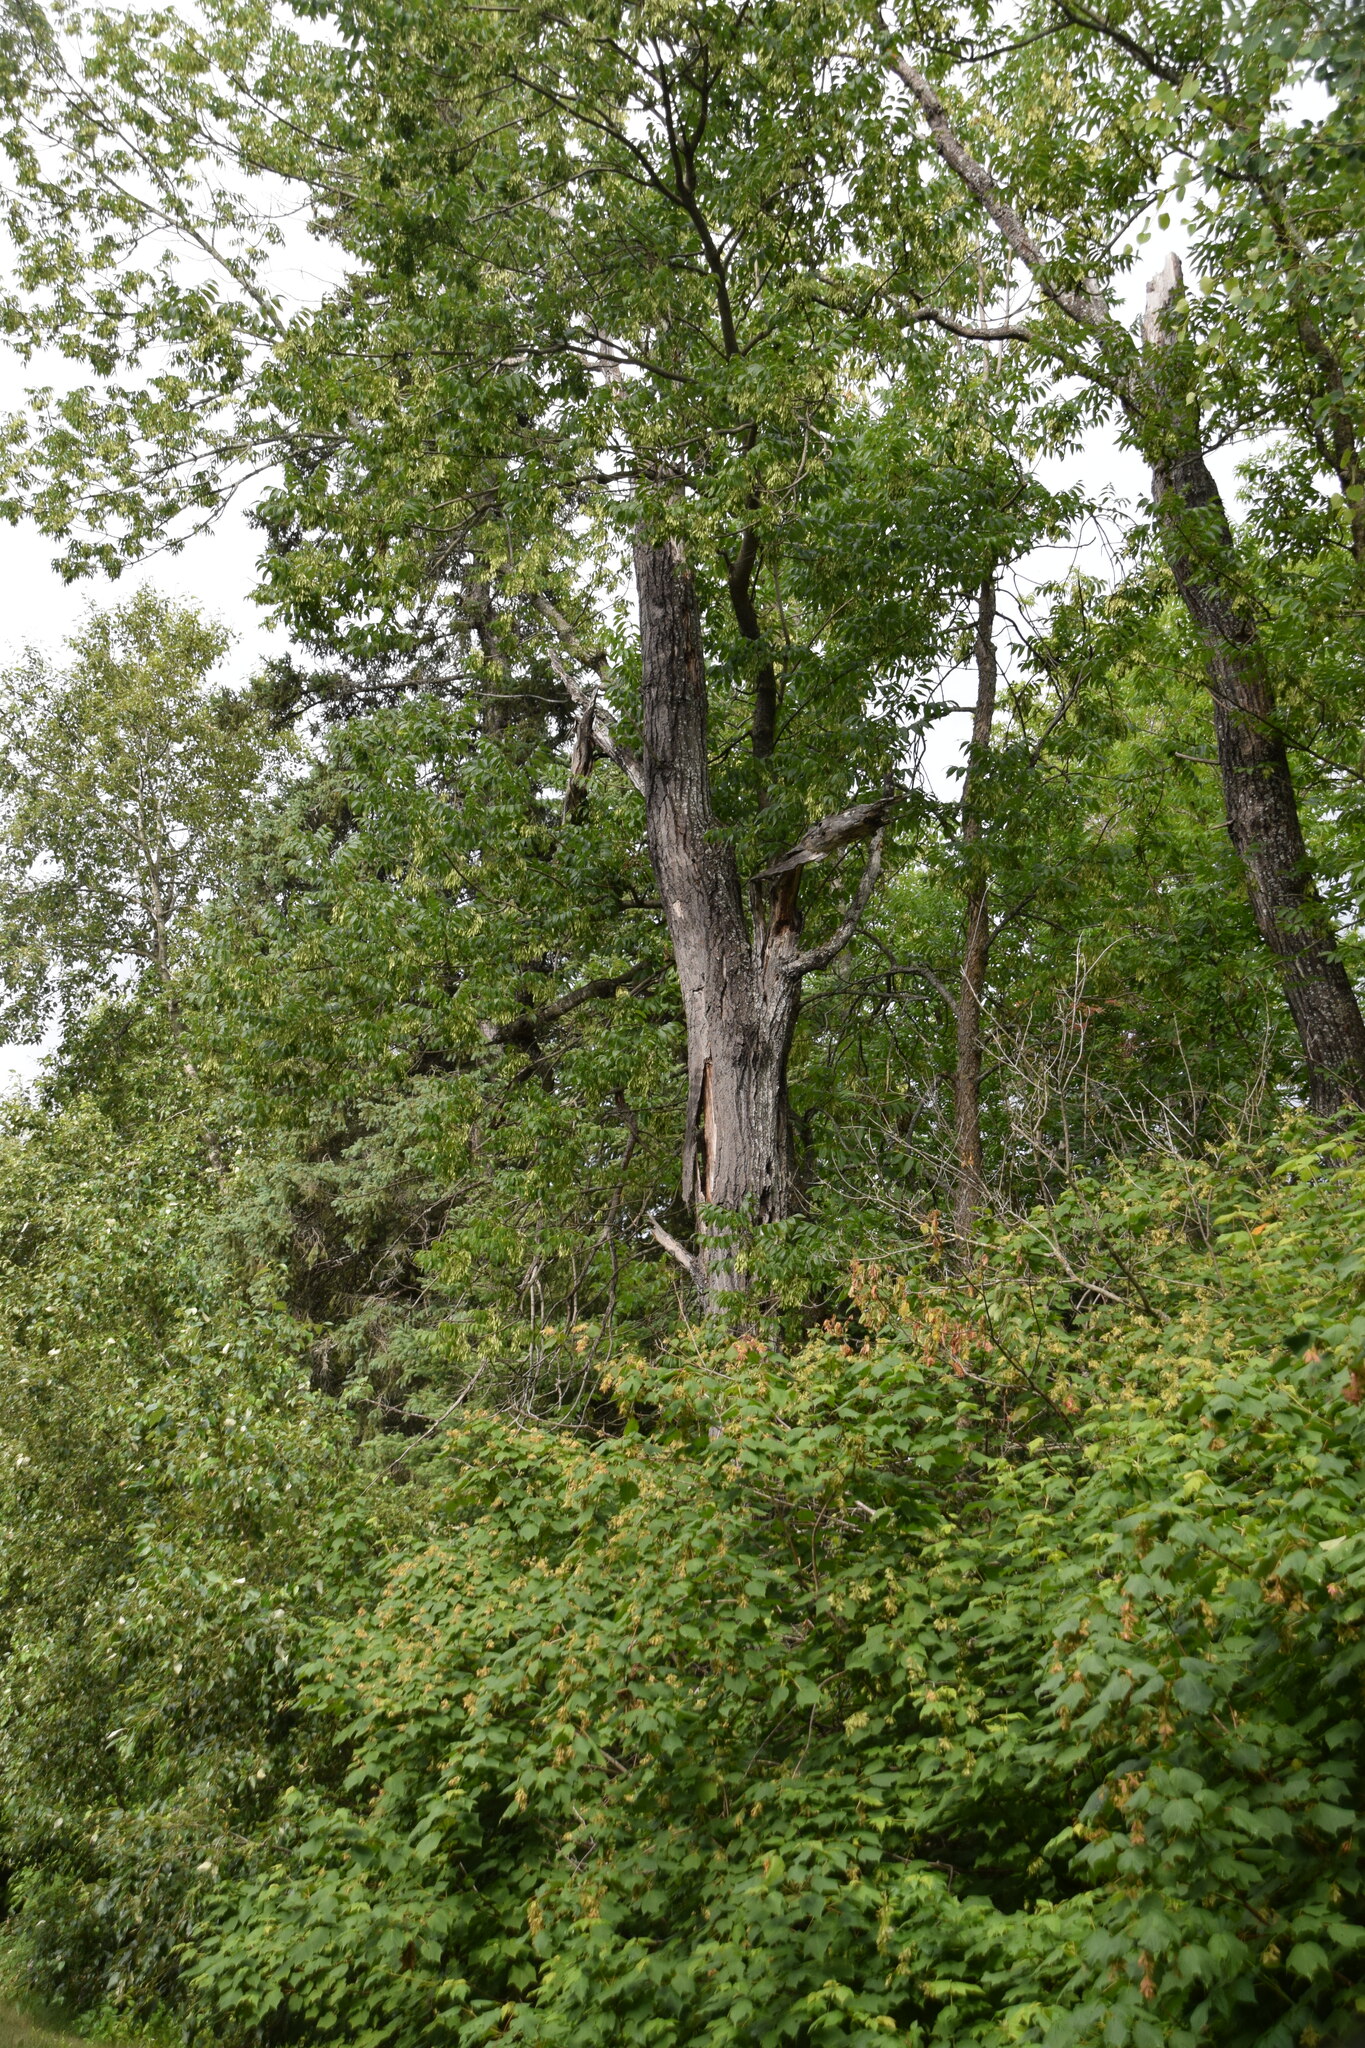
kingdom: Plantae
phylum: Tracheophyta
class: Magnoliopsida
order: Lamiales
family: Oleaceae
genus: Fraxinus
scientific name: Fraxinus nigra
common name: Black ash
